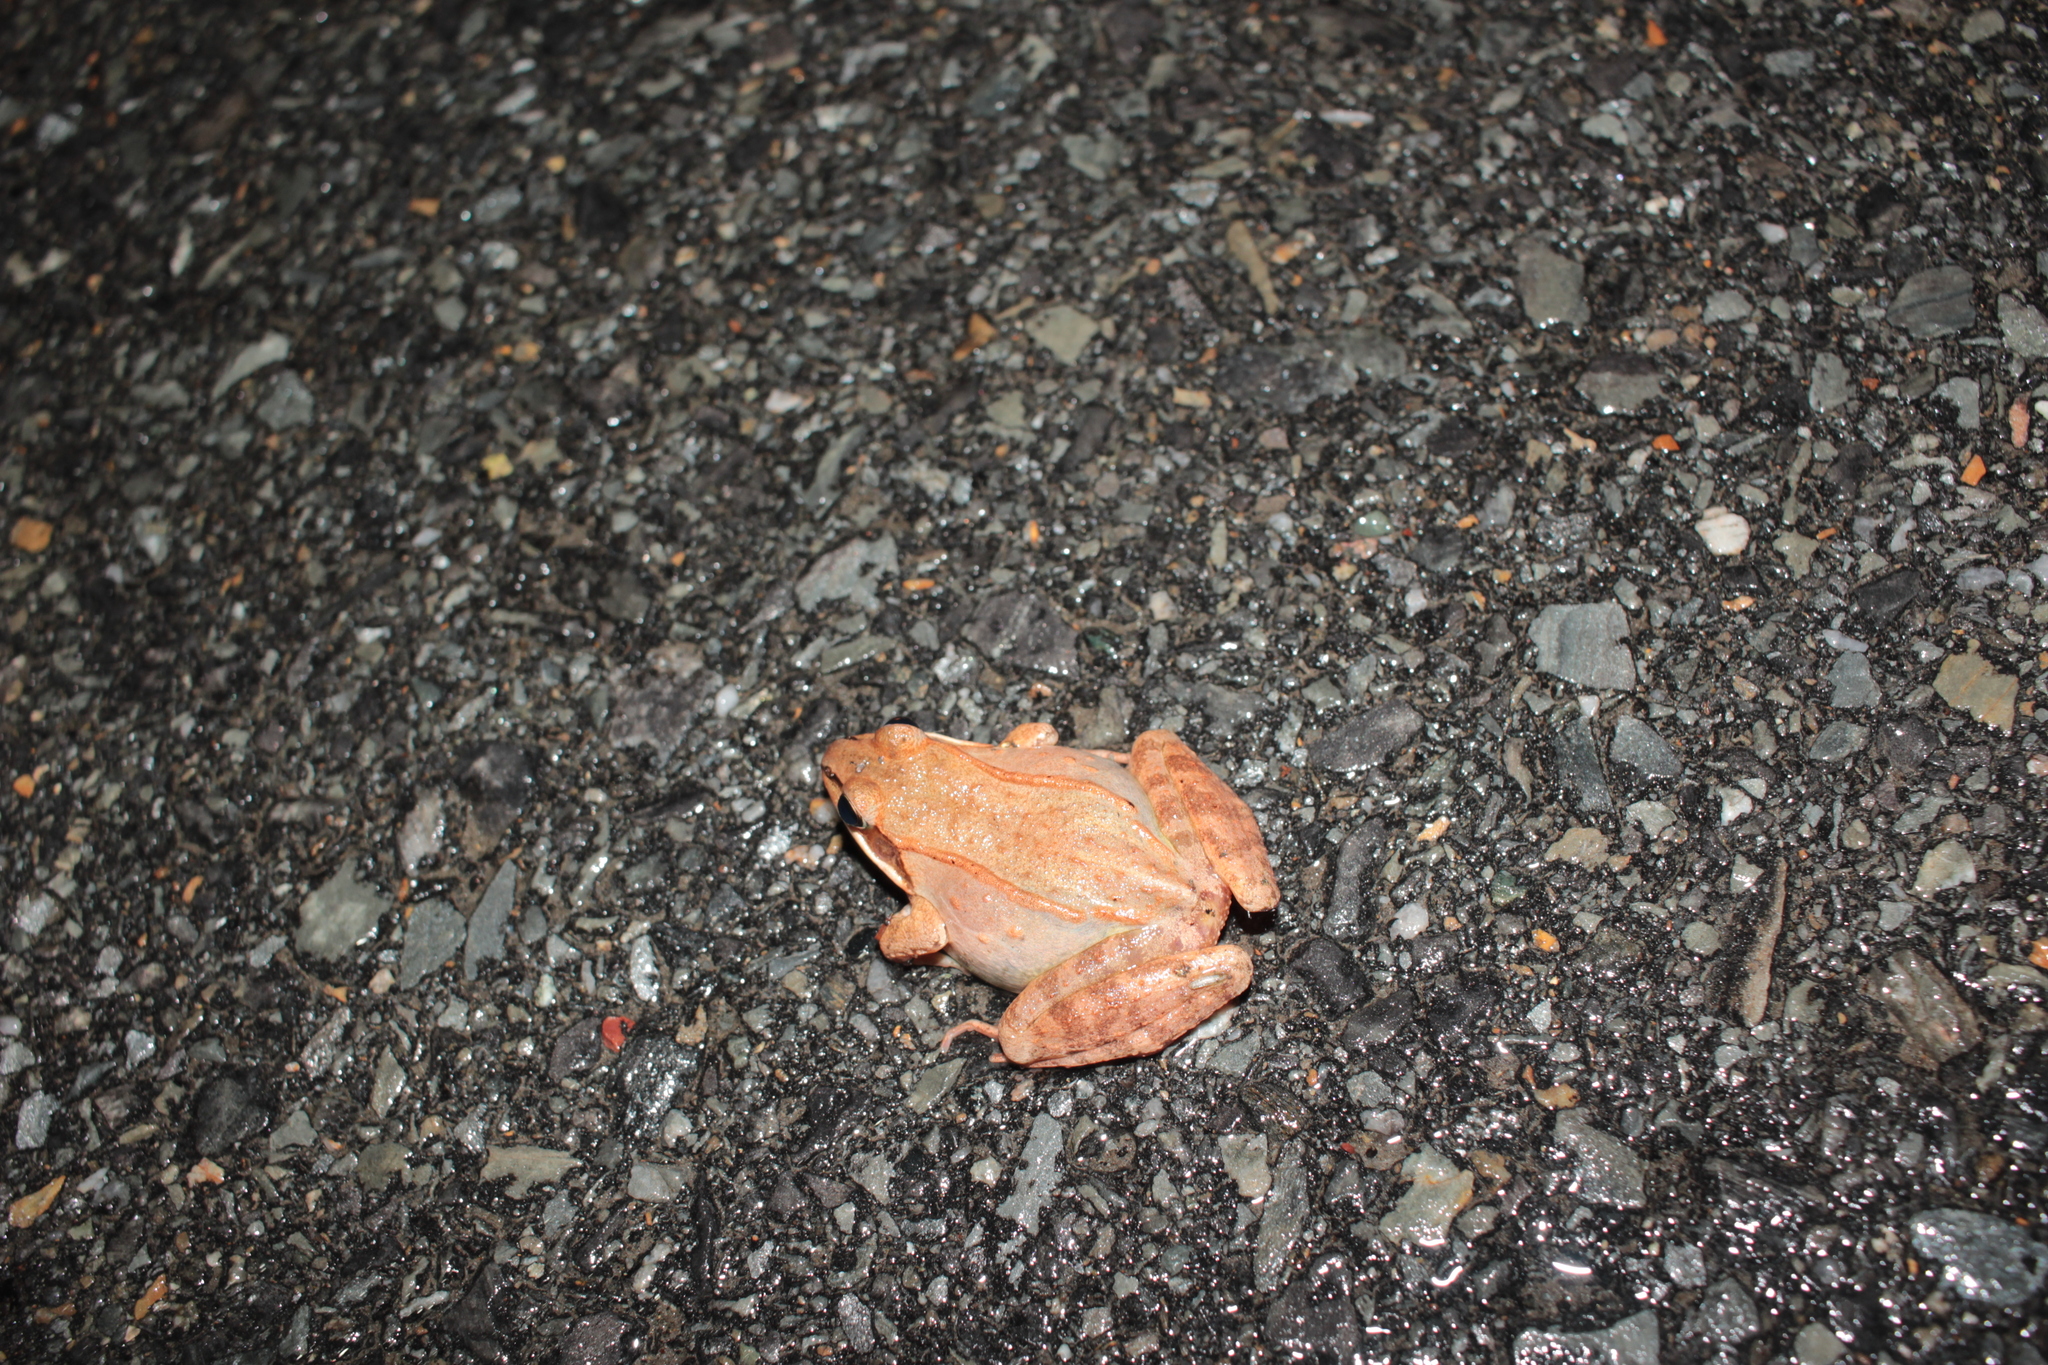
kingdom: Animalia
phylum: Chordata
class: Amphibia
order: Anura
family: Ranidae
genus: Lithobates
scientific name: Lithobates sylvaticus
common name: Wood frog
